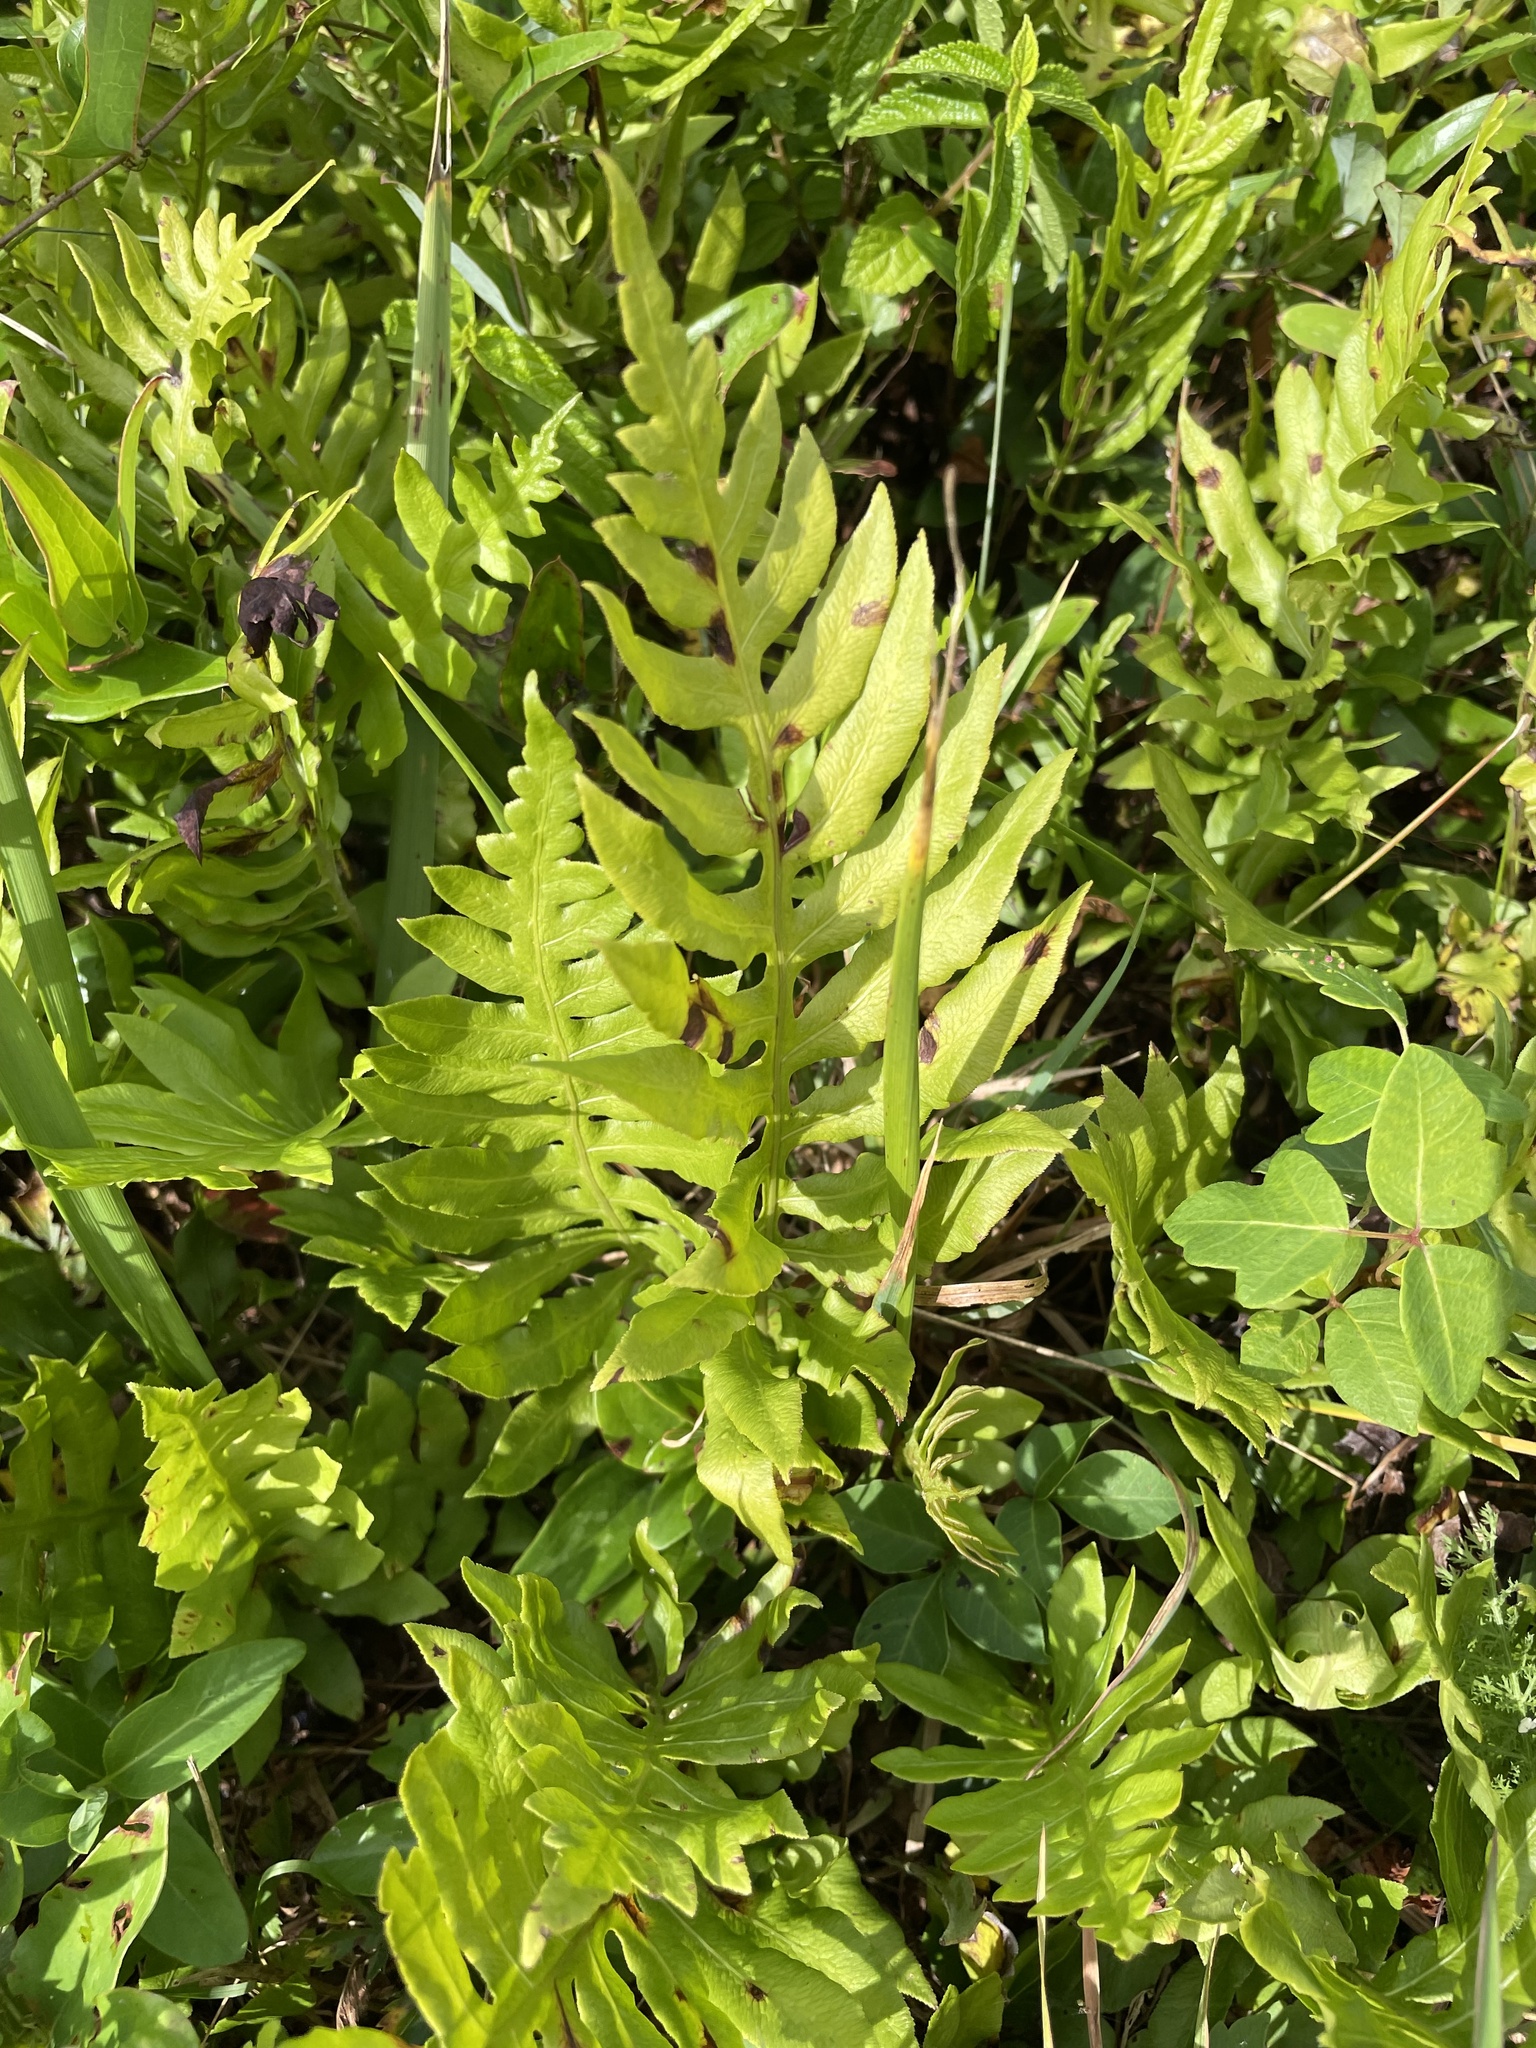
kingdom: Plantae
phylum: Tracheophyta
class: Polypodiopsida
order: Polypodiales
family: Blechnaceae
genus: Lorinseria
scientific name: Lorinseria areolata
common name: Dwarf chain fern
